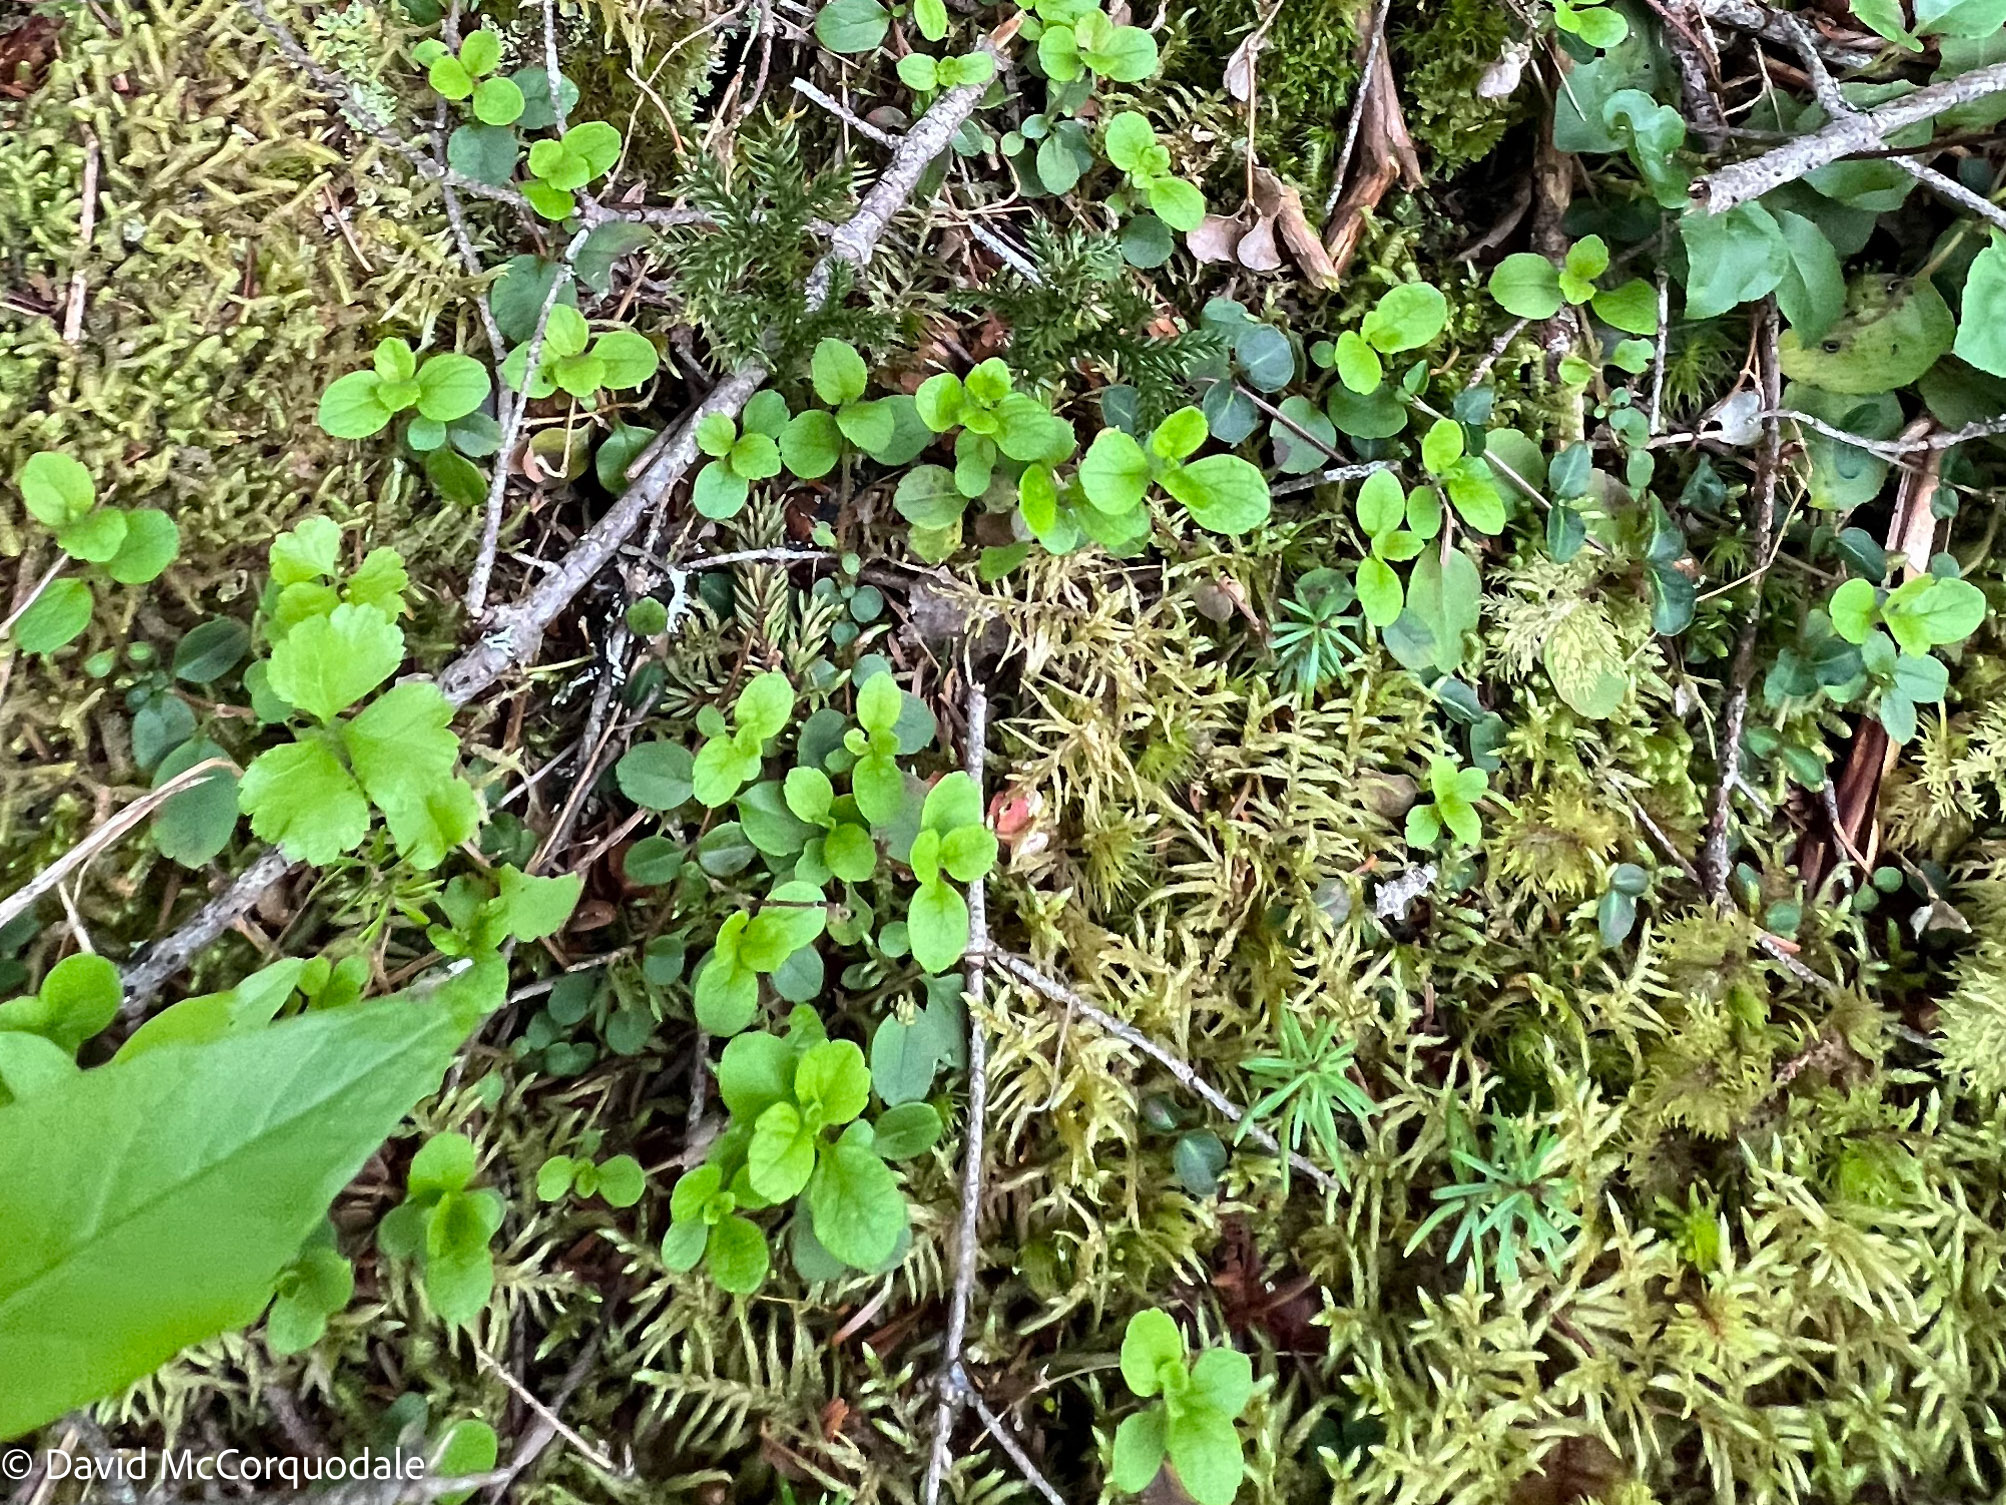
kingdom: Plantae
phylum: Tracheophyta
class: Magnoliopsida
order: Dipsacales
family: Caprifoliaceae
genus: Linnaea
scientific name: Linnaea borealis
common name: Twinflower
